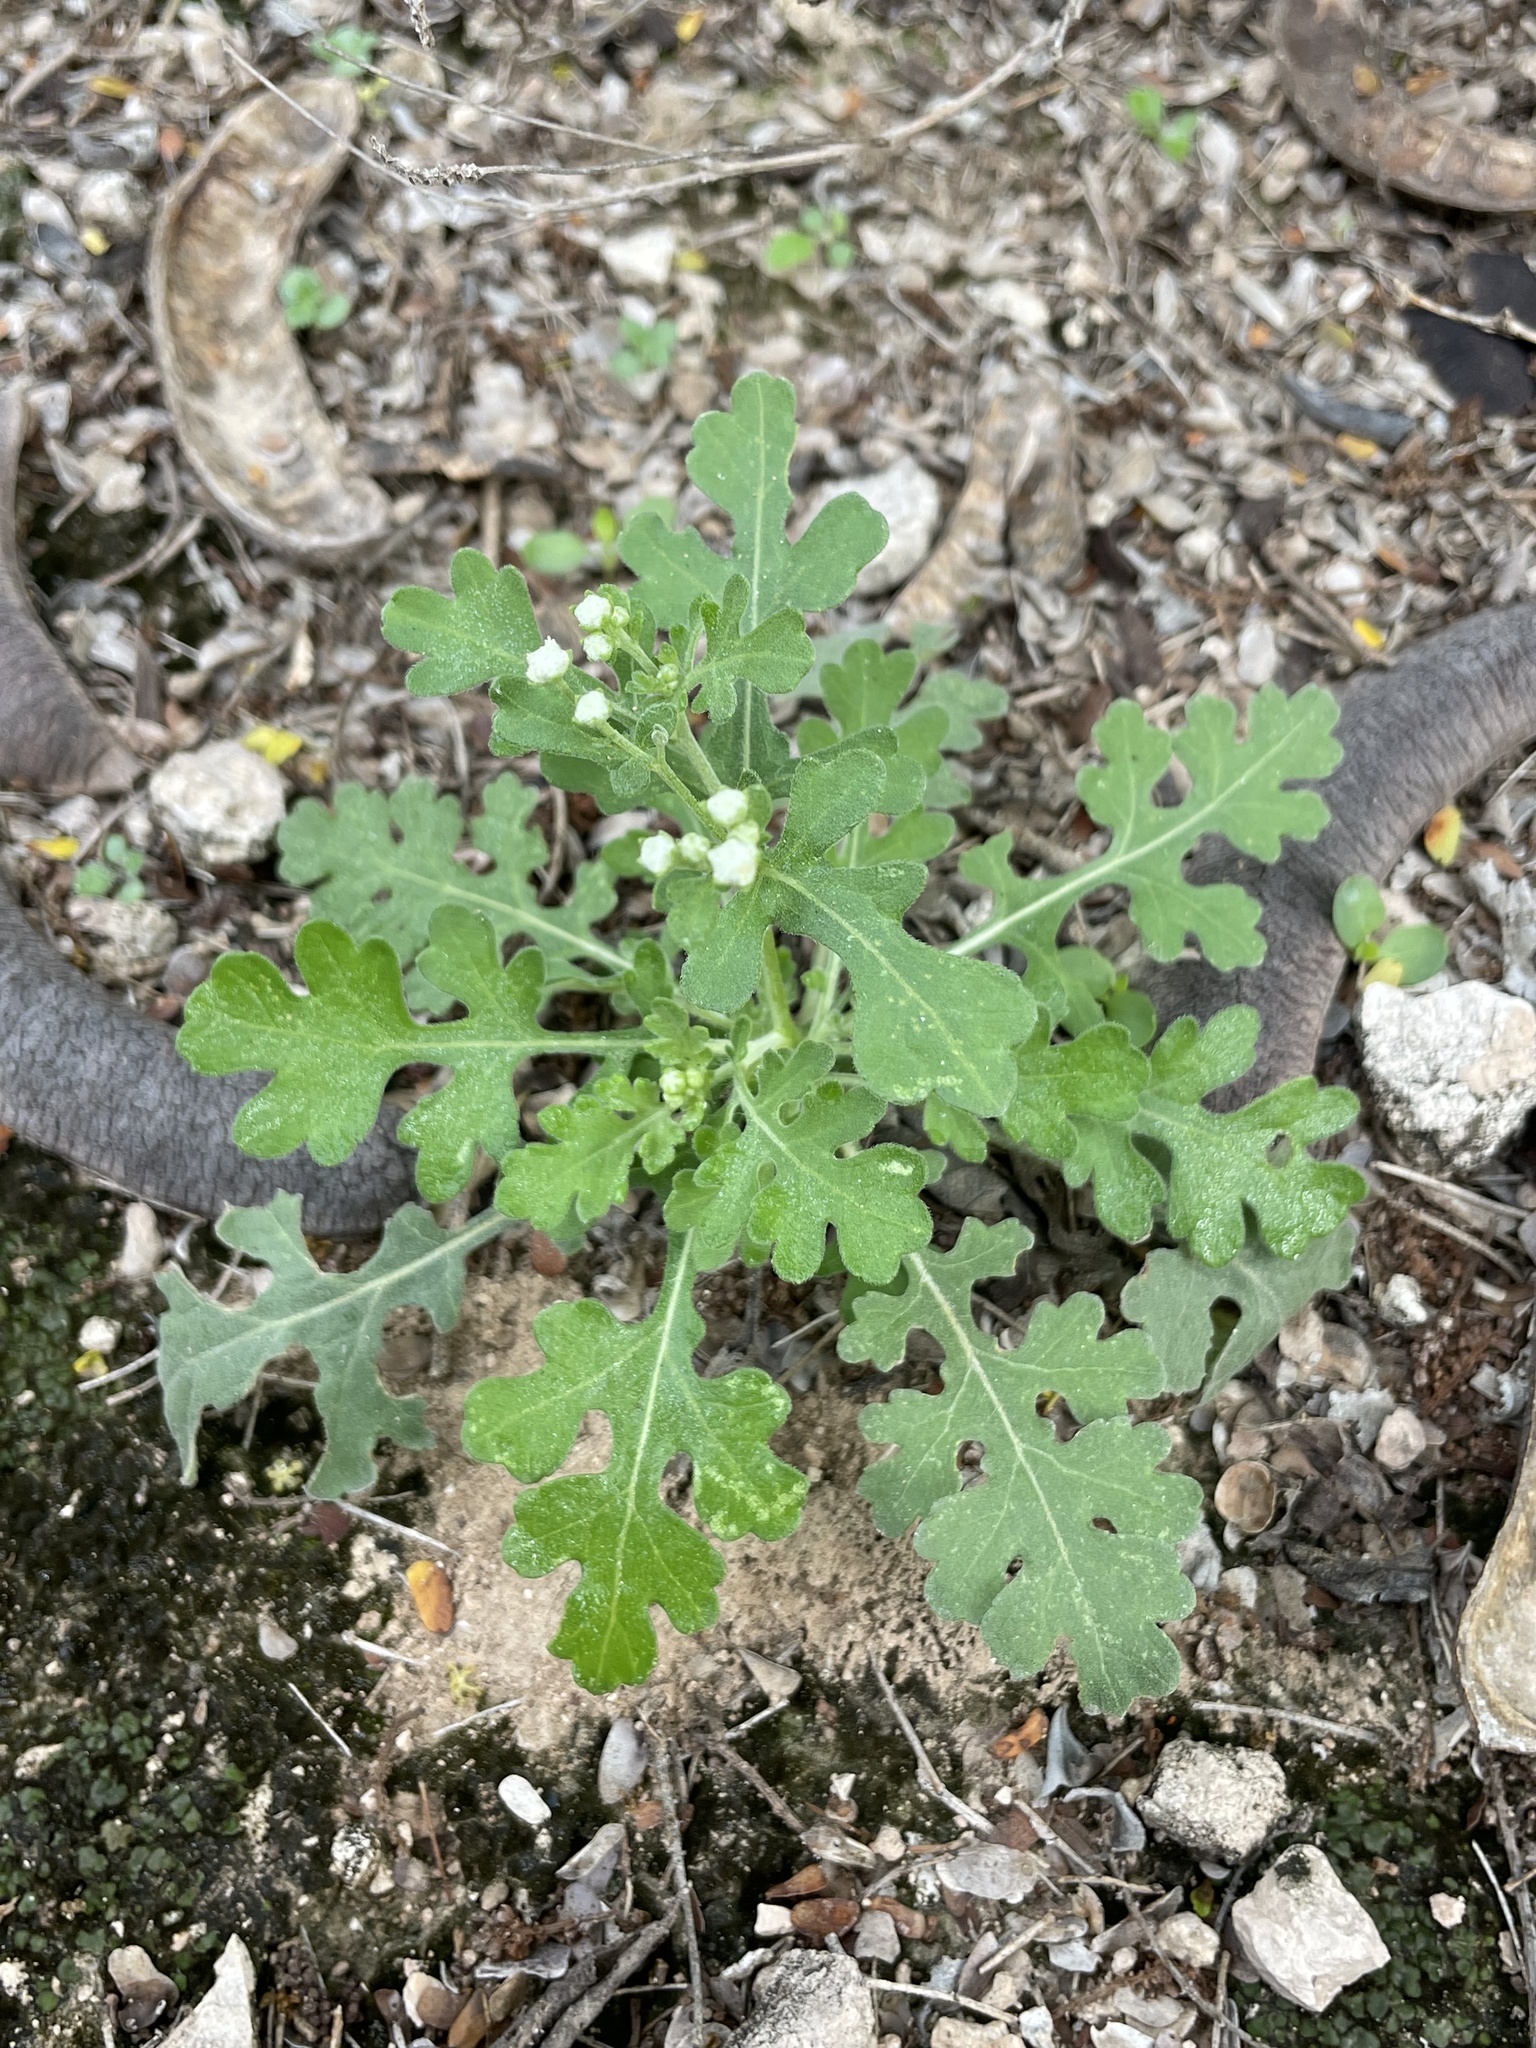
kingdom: Plantae
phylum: Tracheophyta
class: Magnoliopsida
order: Asterales
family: Asteraceae
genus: Parthenium
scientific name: Parthenium confertum
